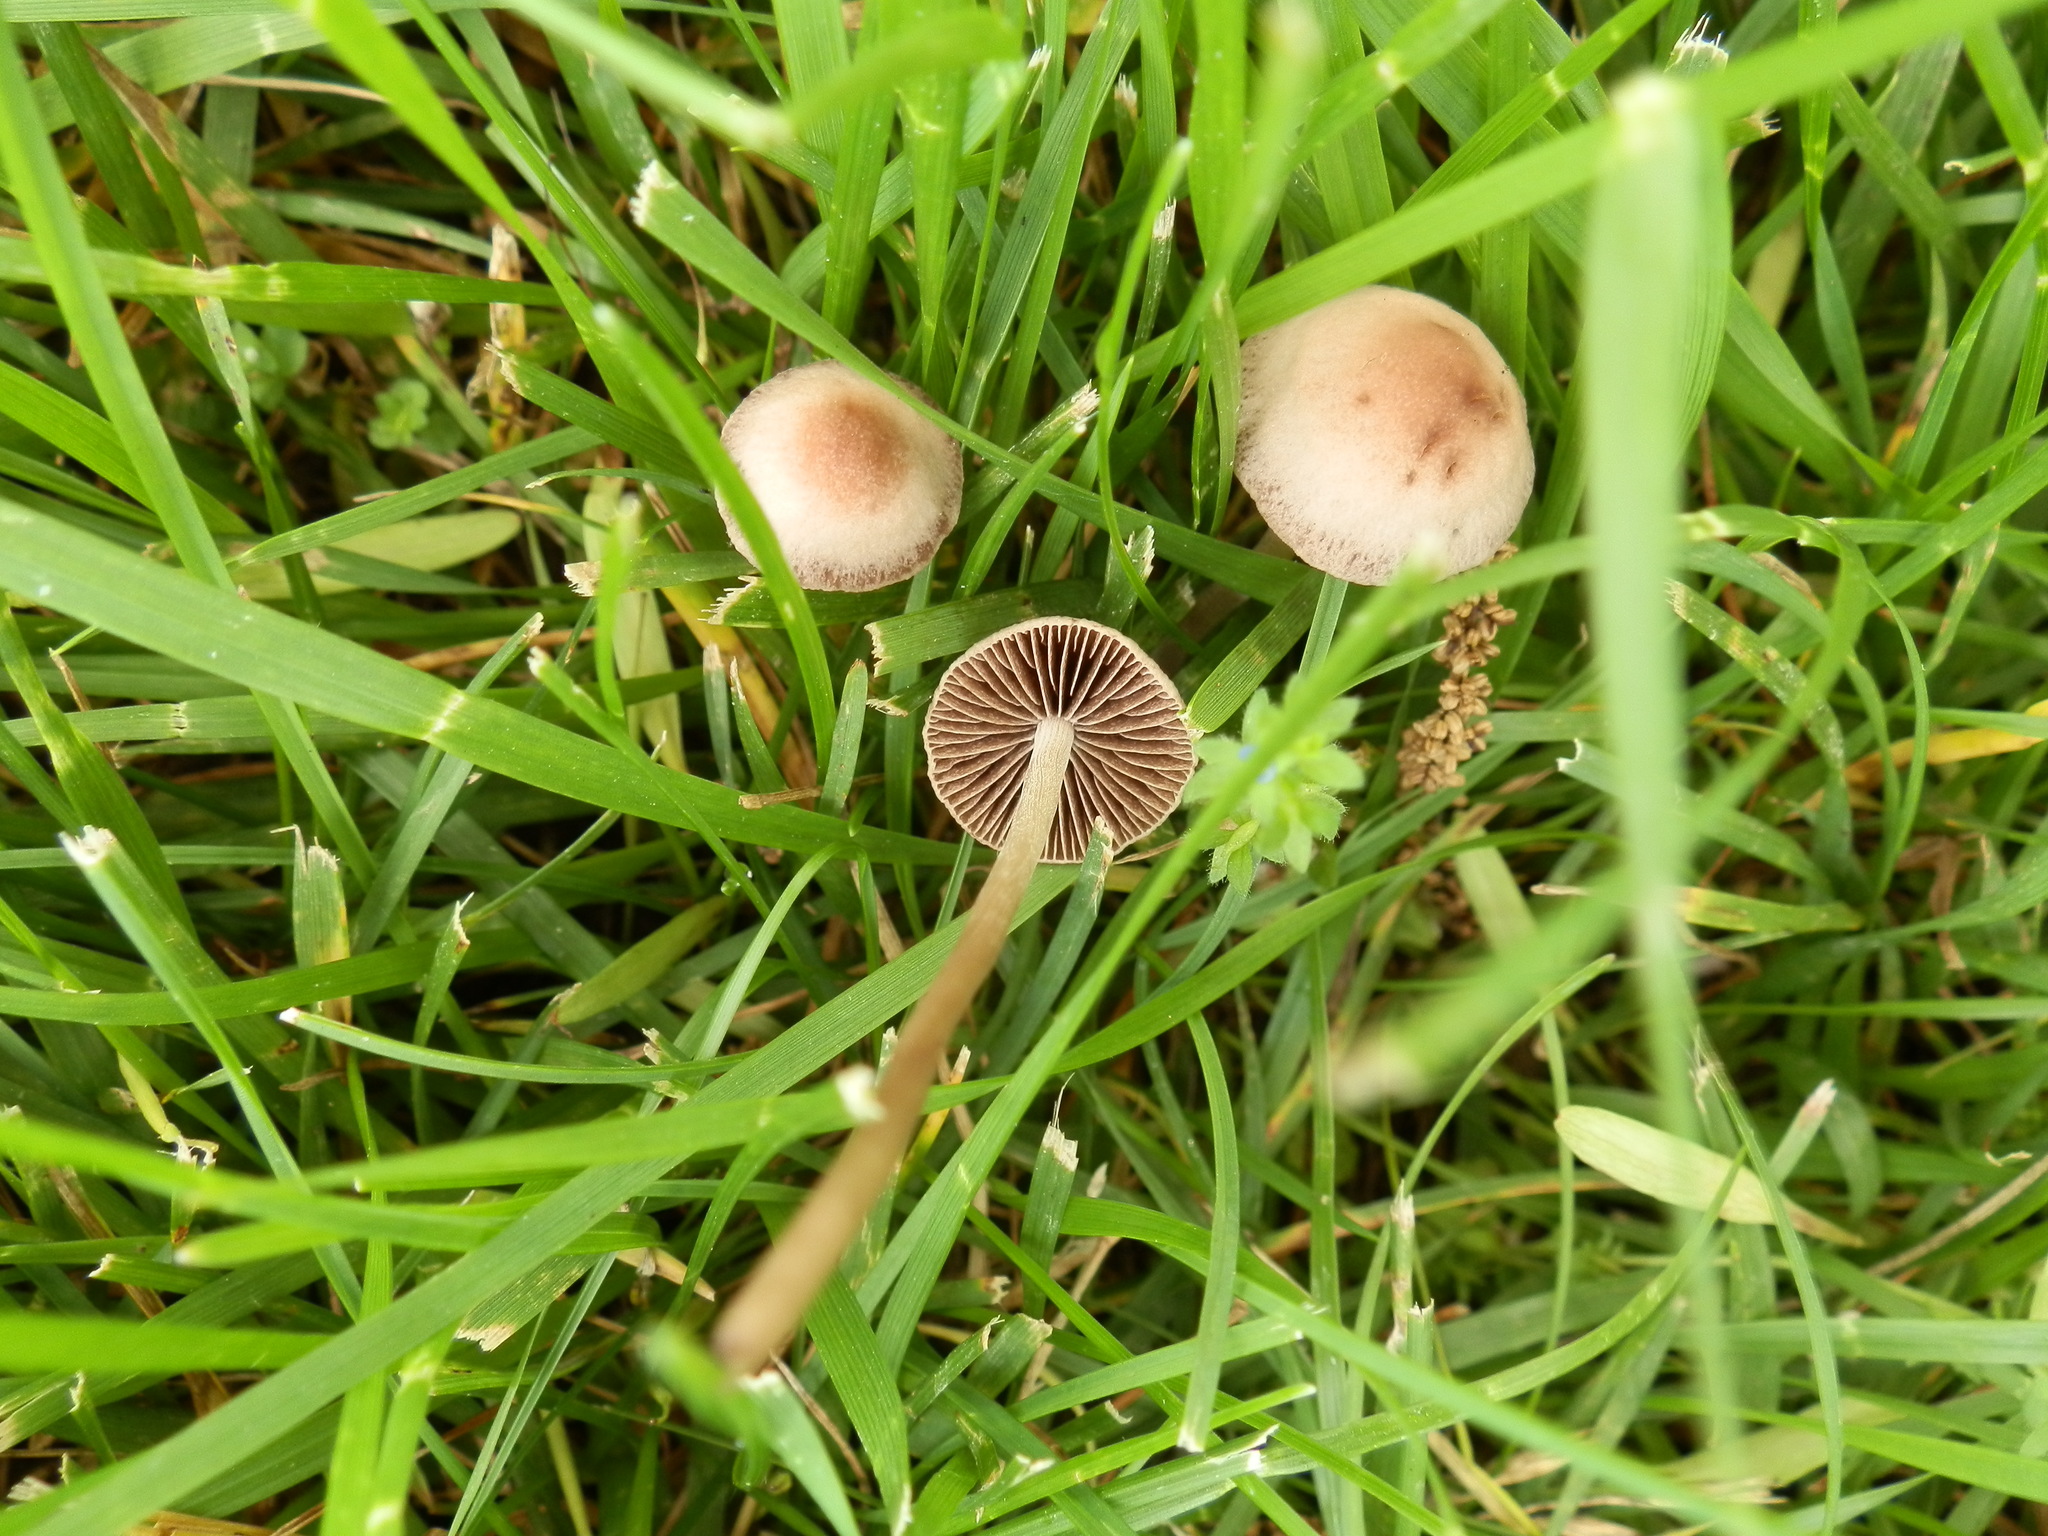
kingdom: Fungi
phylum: Basidiomycota
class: Agaricomycetes
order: Agaricales
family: Bolbitiaceae
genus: Panaeolina
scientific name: Panaeolina foenisecii
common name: Brown hay cap
